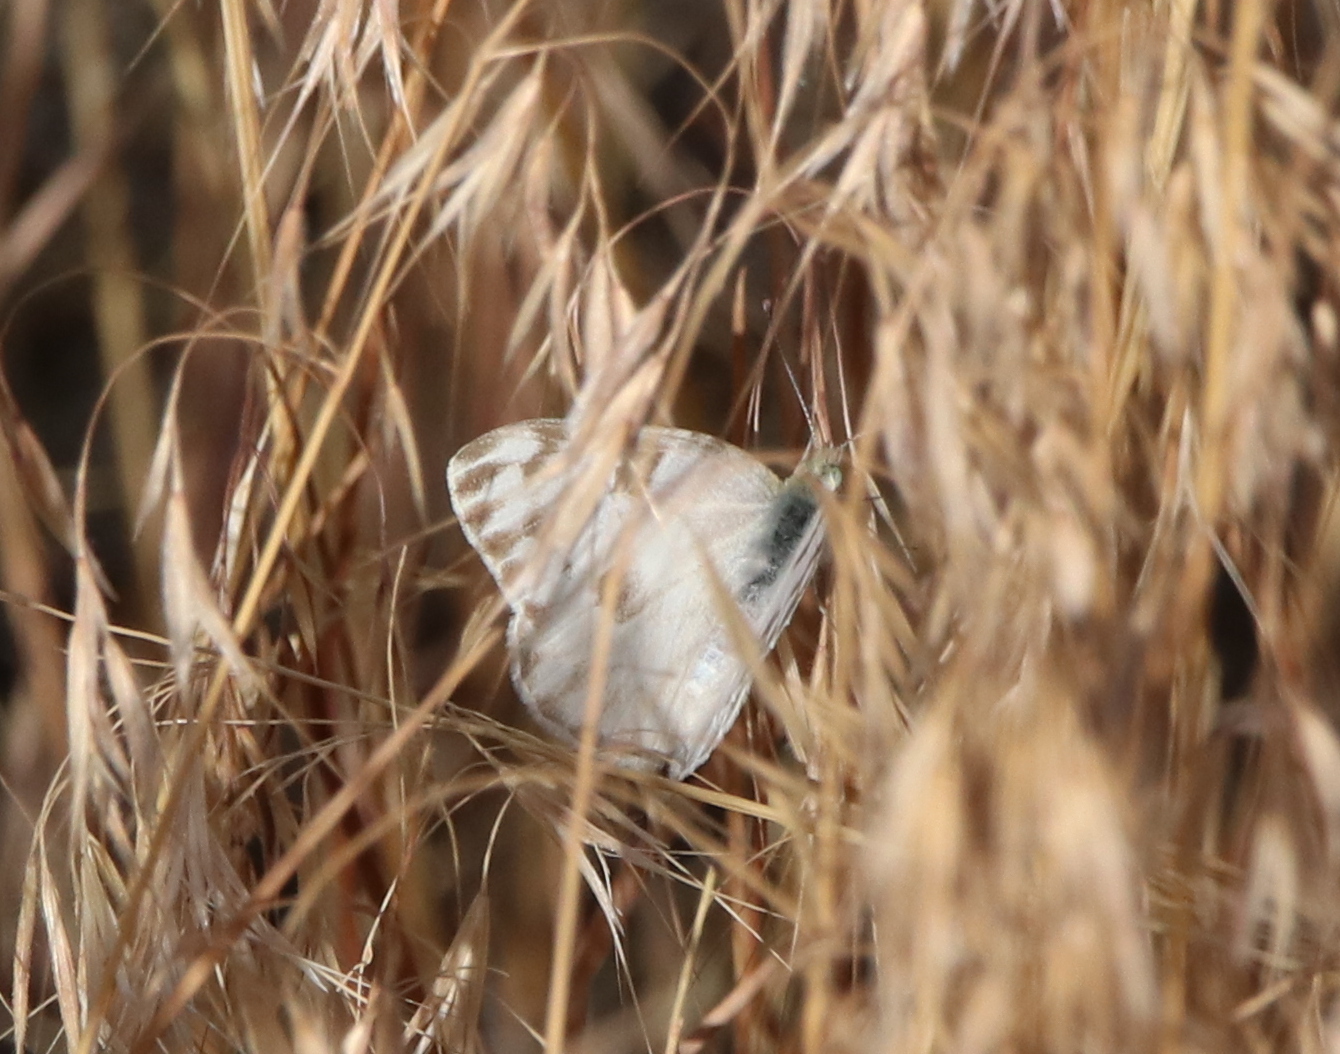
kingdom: Animalia
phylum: Arthropoda
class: Insecta
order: Lepidoptera
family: Pieridae
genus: Pontia
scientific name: Pontia protodice
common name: Checkered white
